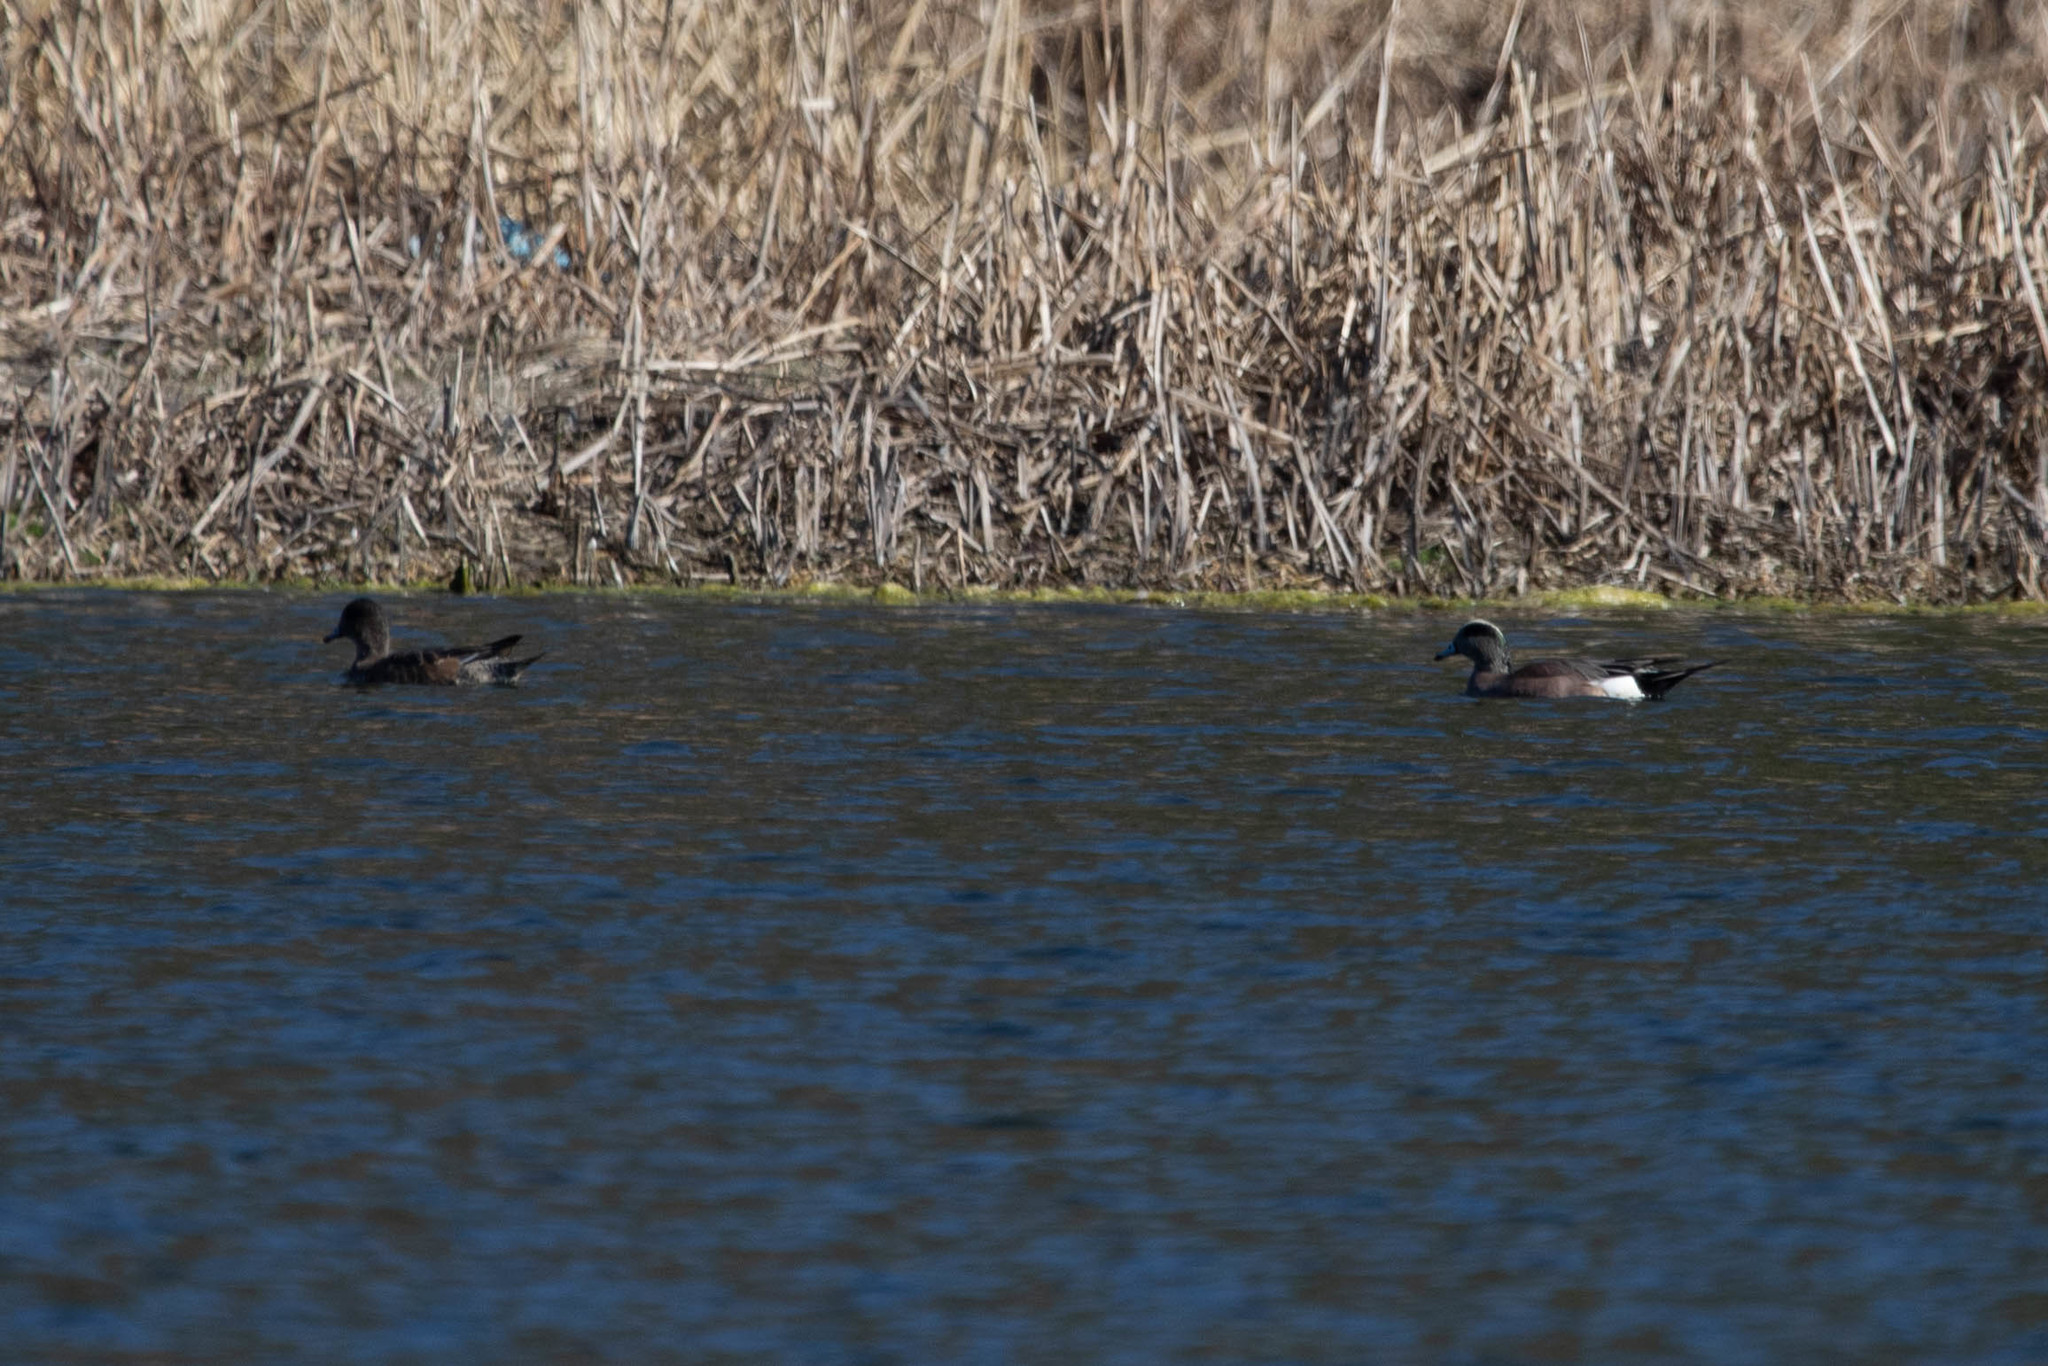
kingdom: Animalia
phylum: Chordata
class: Aves
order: Anseriformes
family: Anatidae
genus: Mareca
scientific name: Mareca americana
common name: American wigeon
